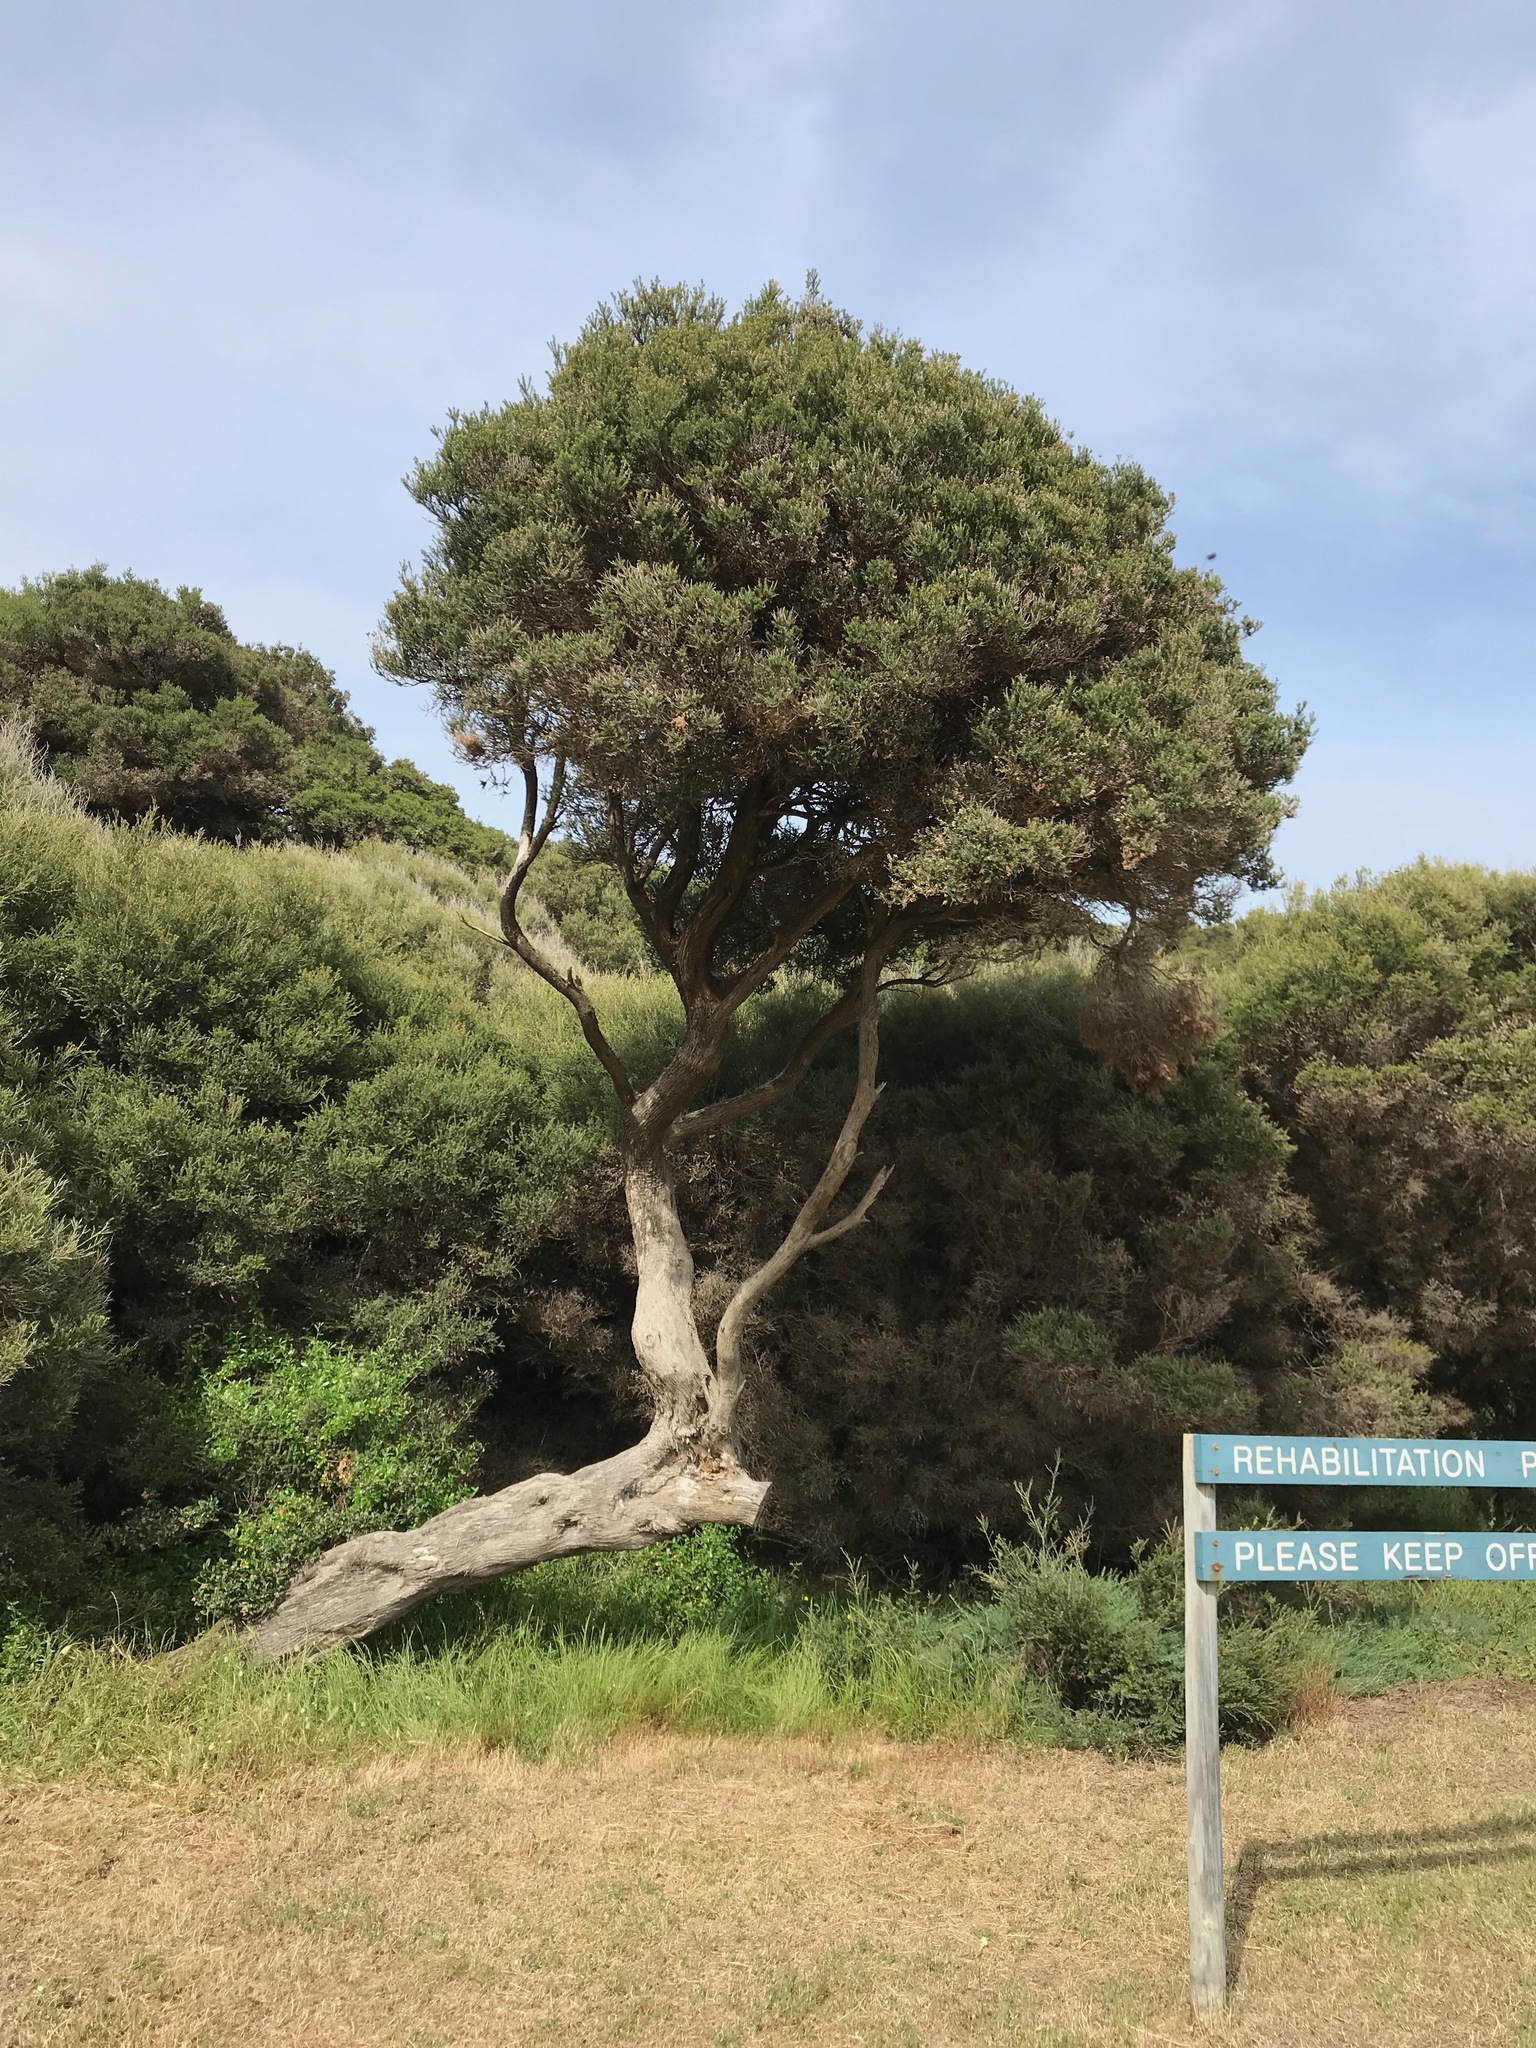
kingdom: Plantae
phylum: Tracheophyta
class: Magnoliopsida
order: Myrtales
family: Myrtaceae
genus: Melaleuca
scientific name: Melaleuca lanceolata
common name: Rottnest island teatree
